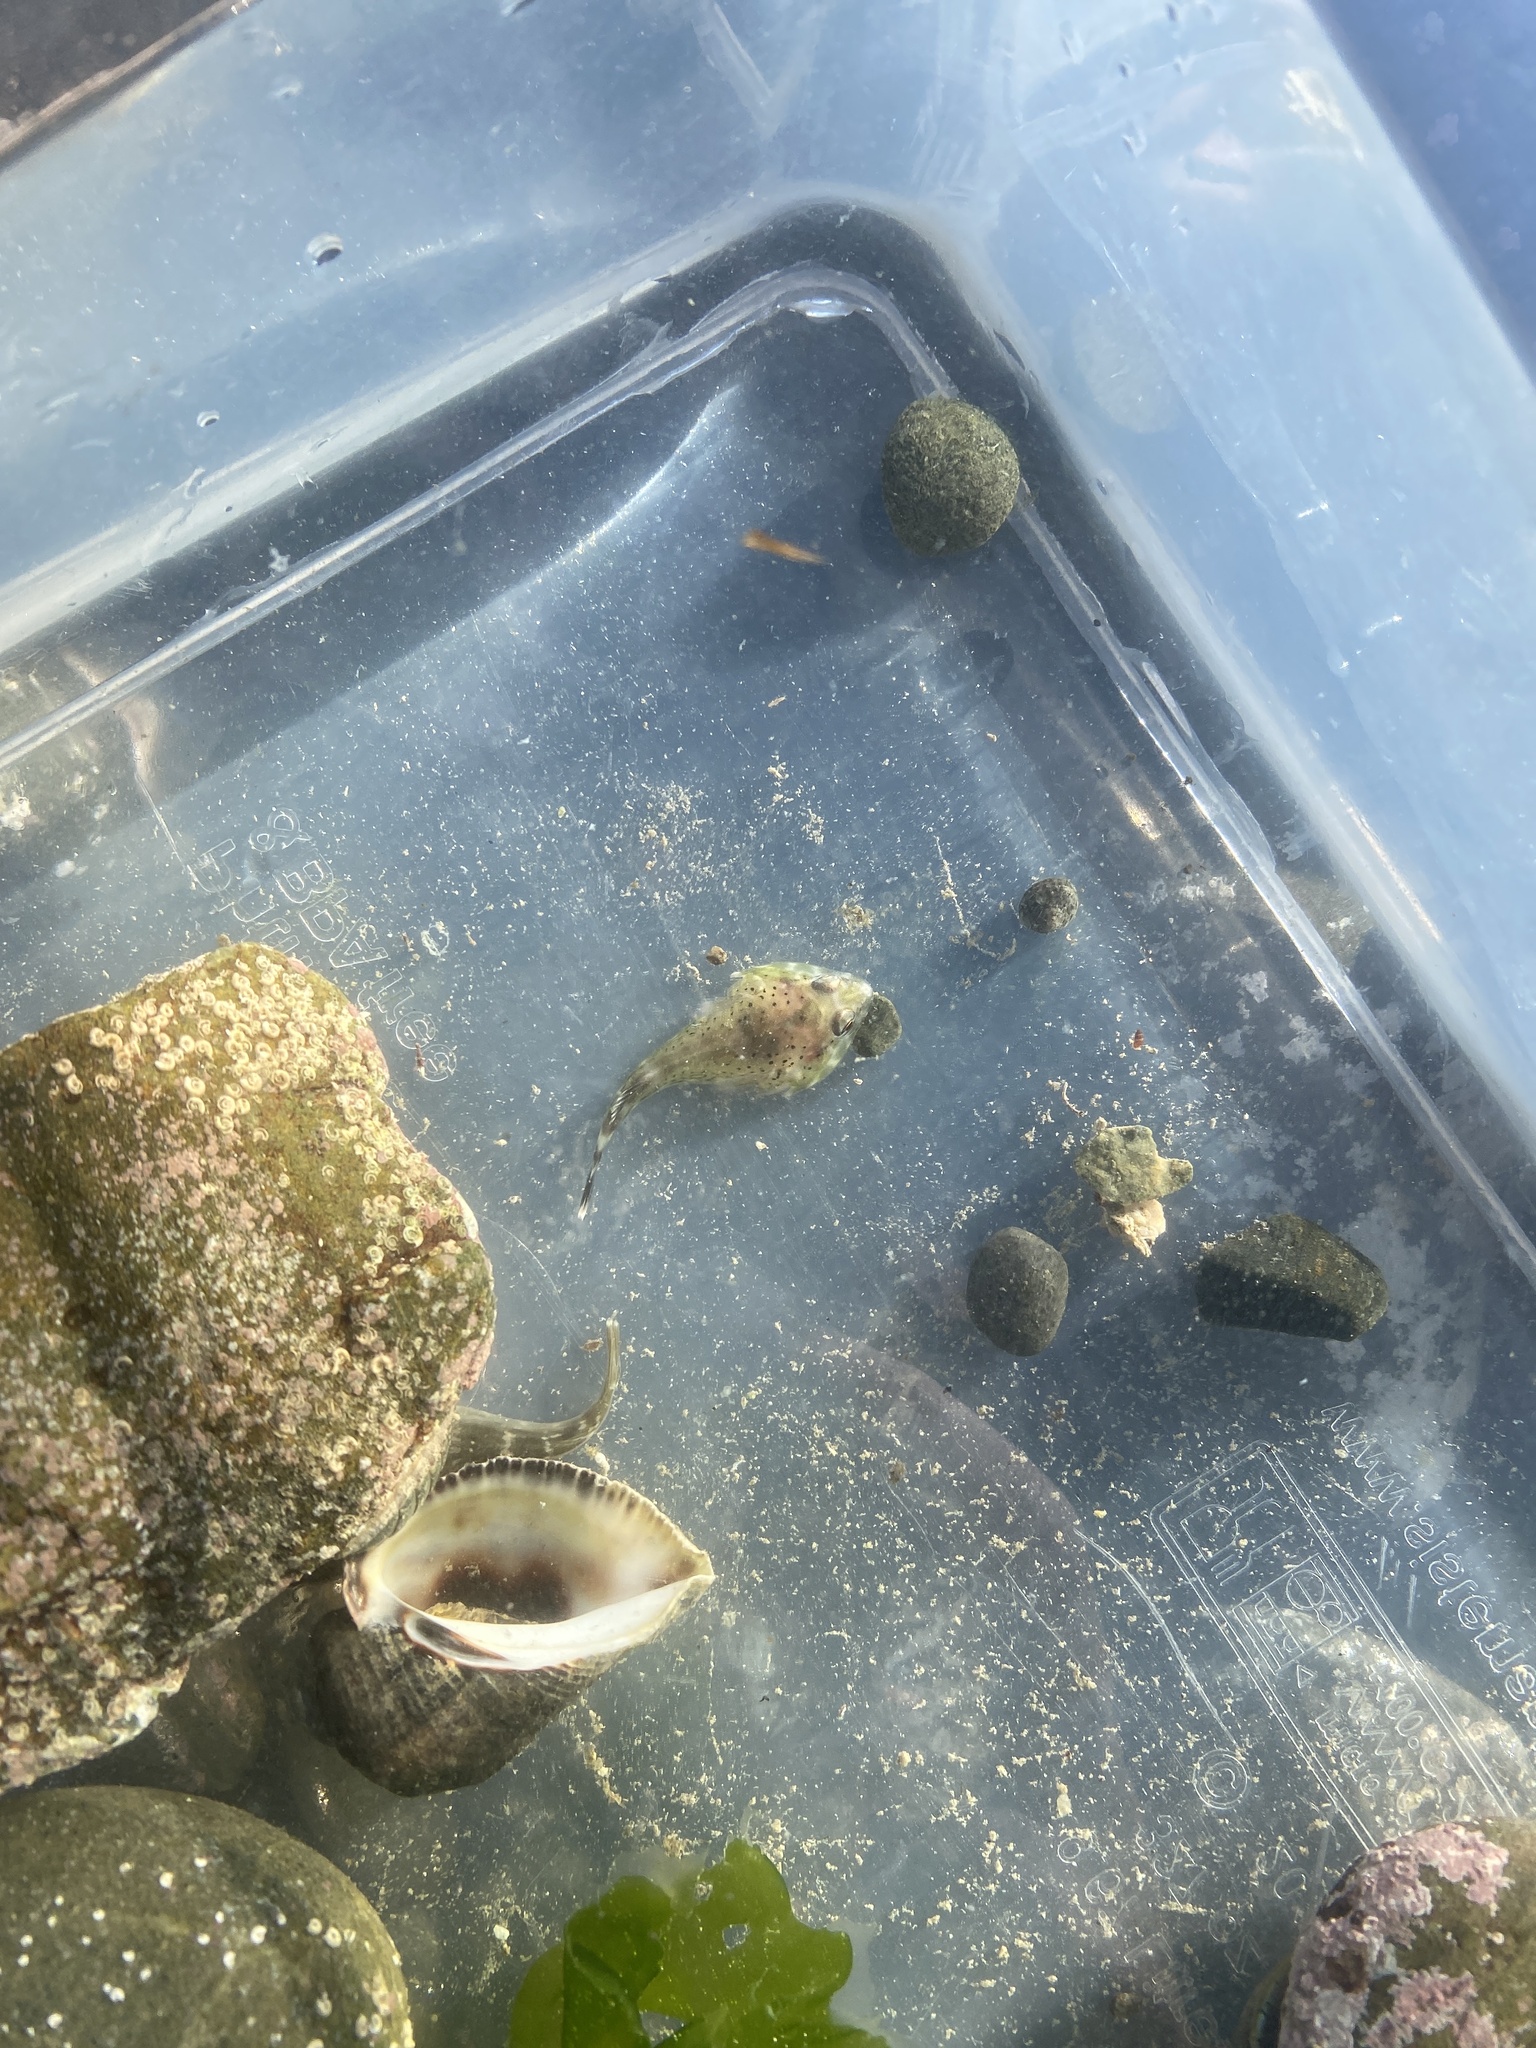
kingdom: Animalia
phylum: Chordata
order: Gobiesociformes
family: Gobiesocidae
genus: Diplocrepis
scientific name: Diplocrepis puniceus
